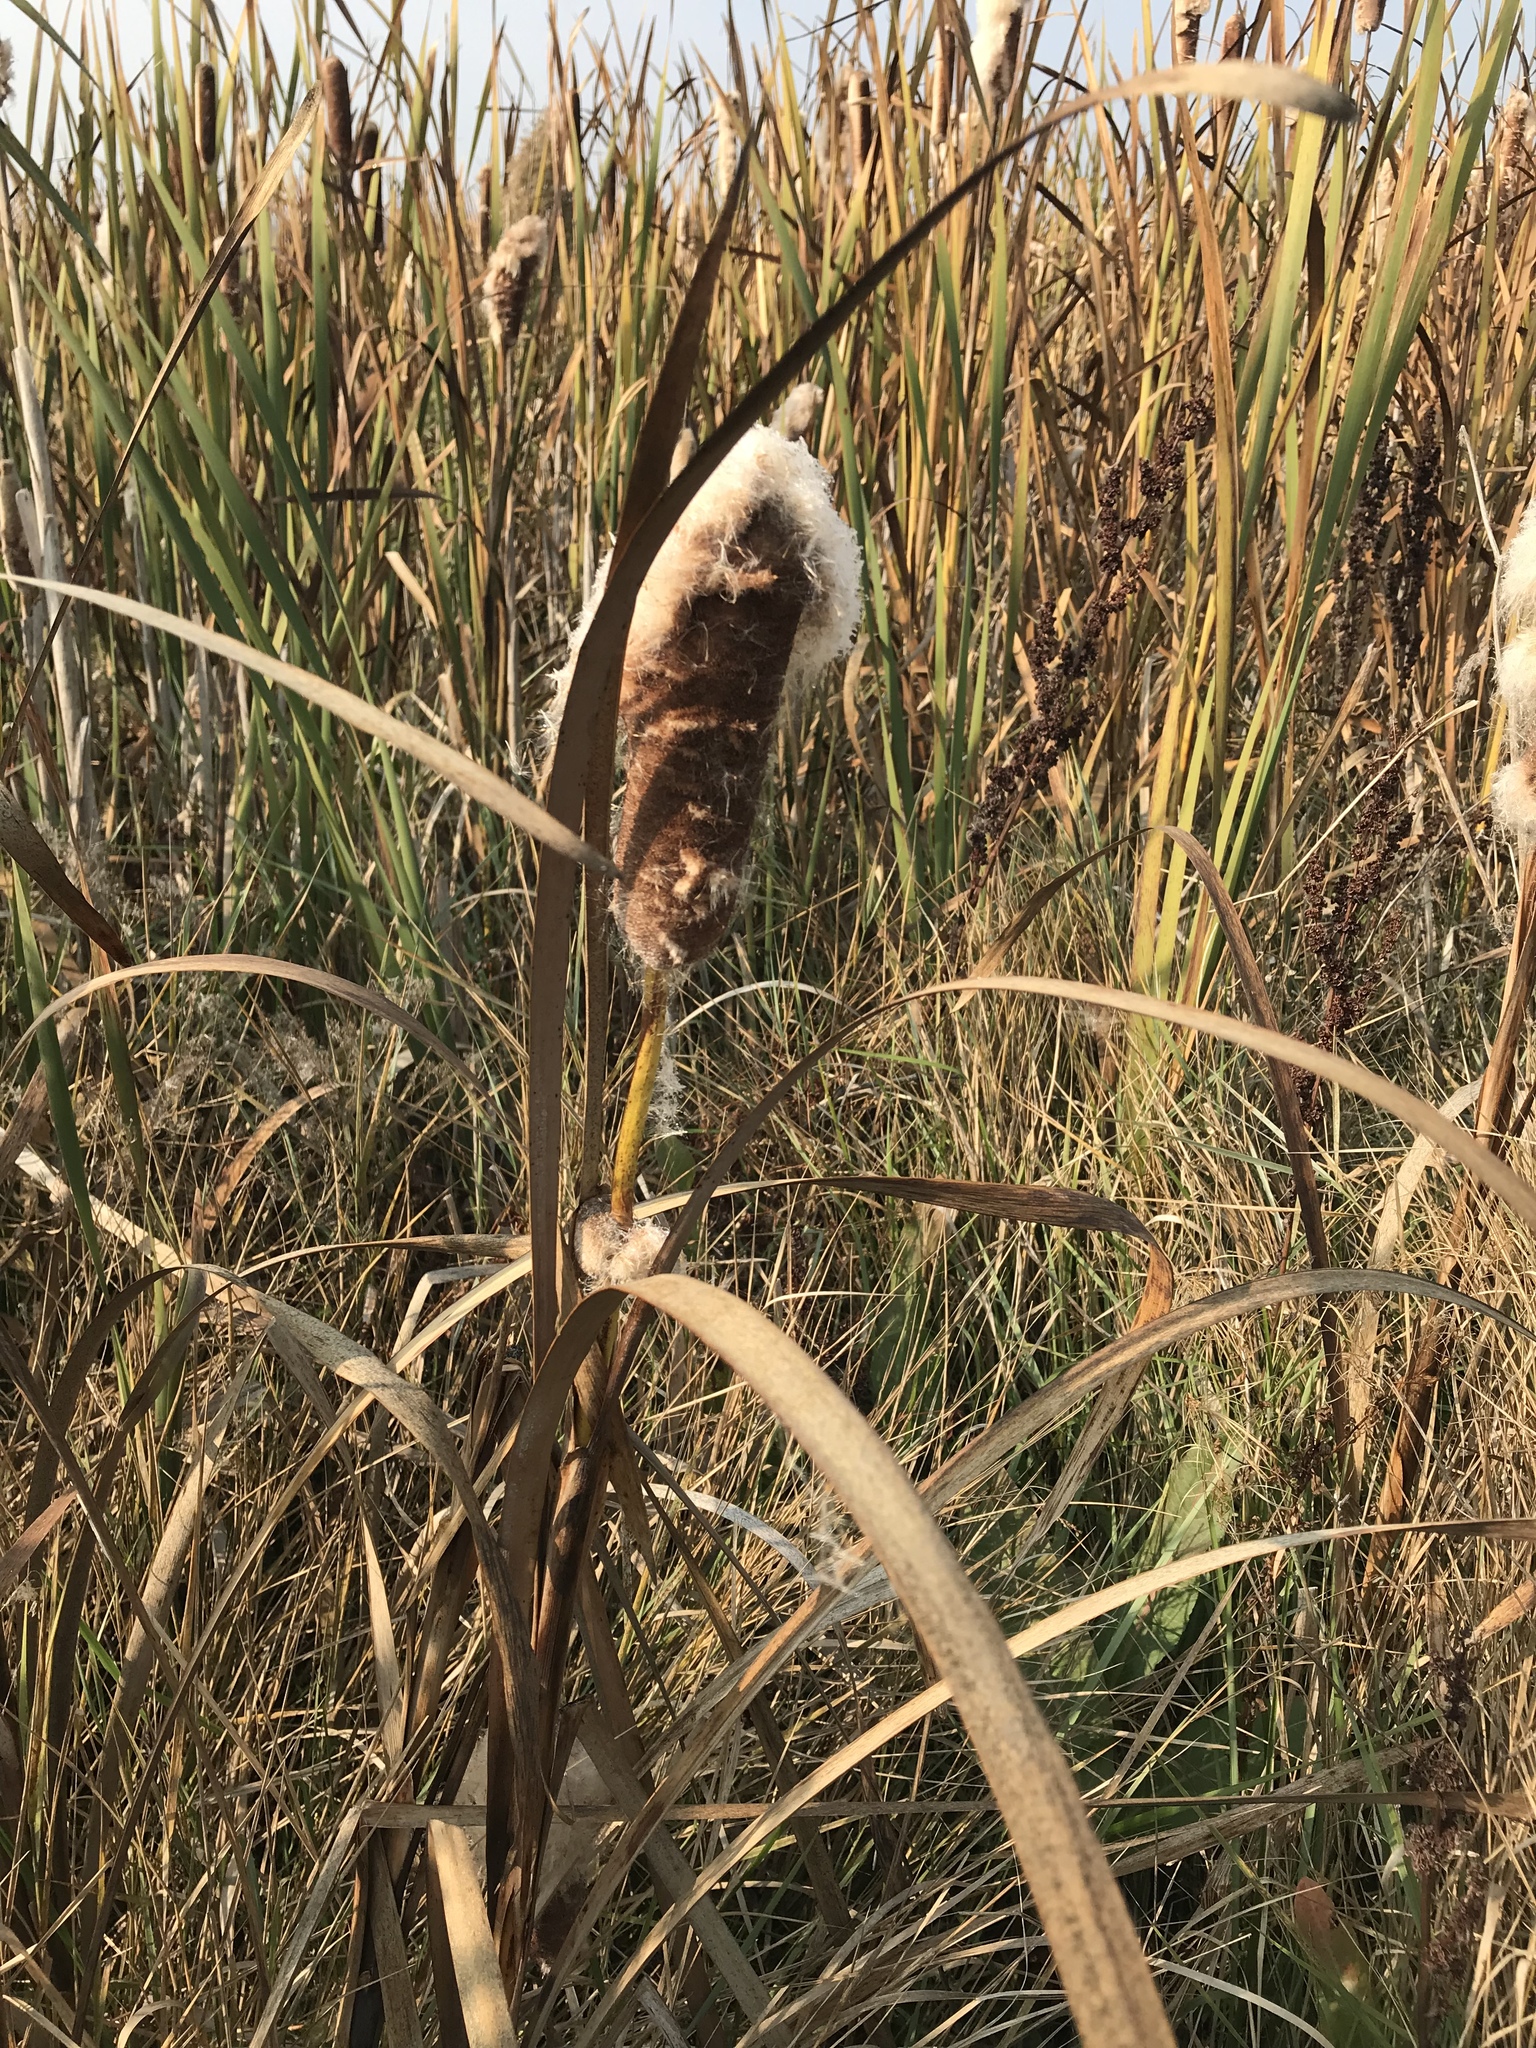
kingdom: Plantae
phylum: Tracheophyta
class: Liliopsida
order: Poales
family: Typhaceae
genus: Typha
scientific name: Typha latifolia
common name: Broadleaf cattail
